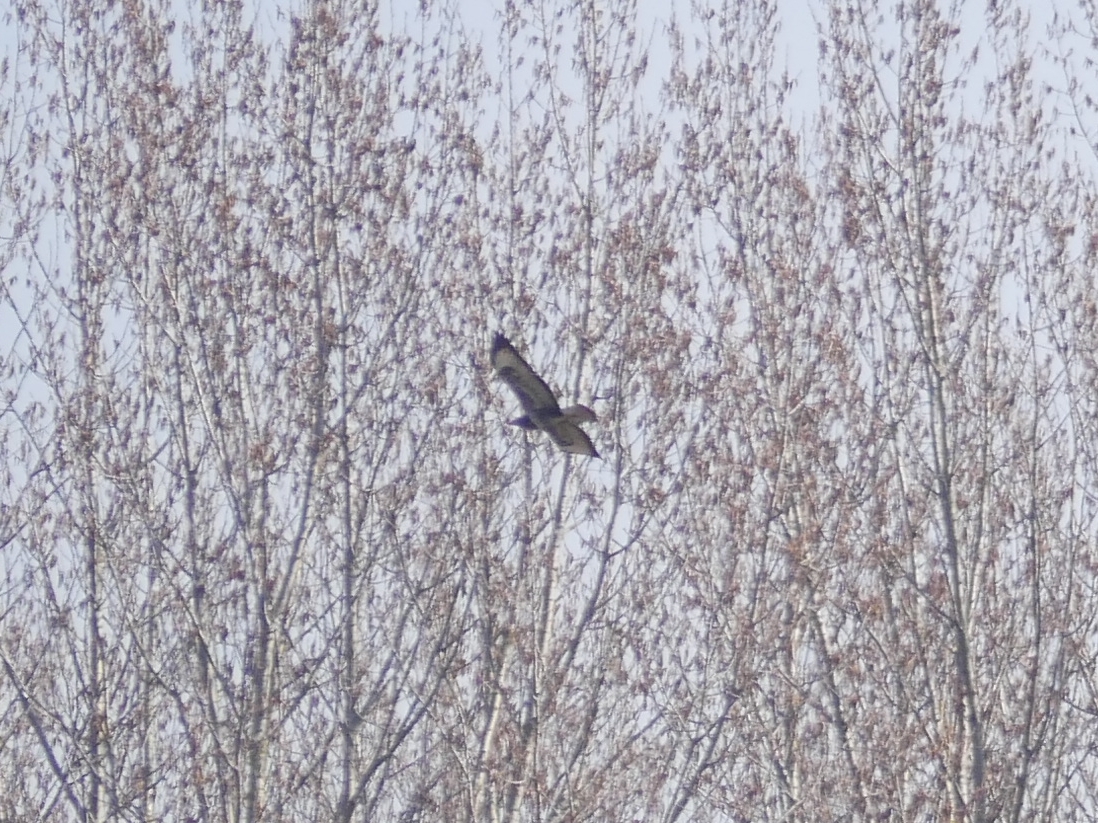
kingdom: Animalia
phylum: Chordata
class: Aves
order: Accipitriformes
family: Accipitridae
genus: Buteo
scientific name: Buteo buteo
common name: Common buzzard
